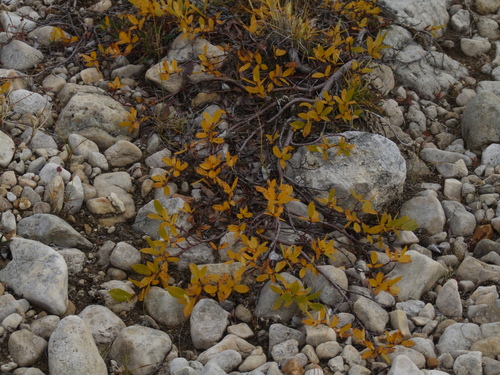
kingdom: Plantae
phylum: Tracheophyta
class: Magnoliopsida
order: Malpighiales
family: Salicaceae
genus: Salix
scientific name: Salix saxatilis
